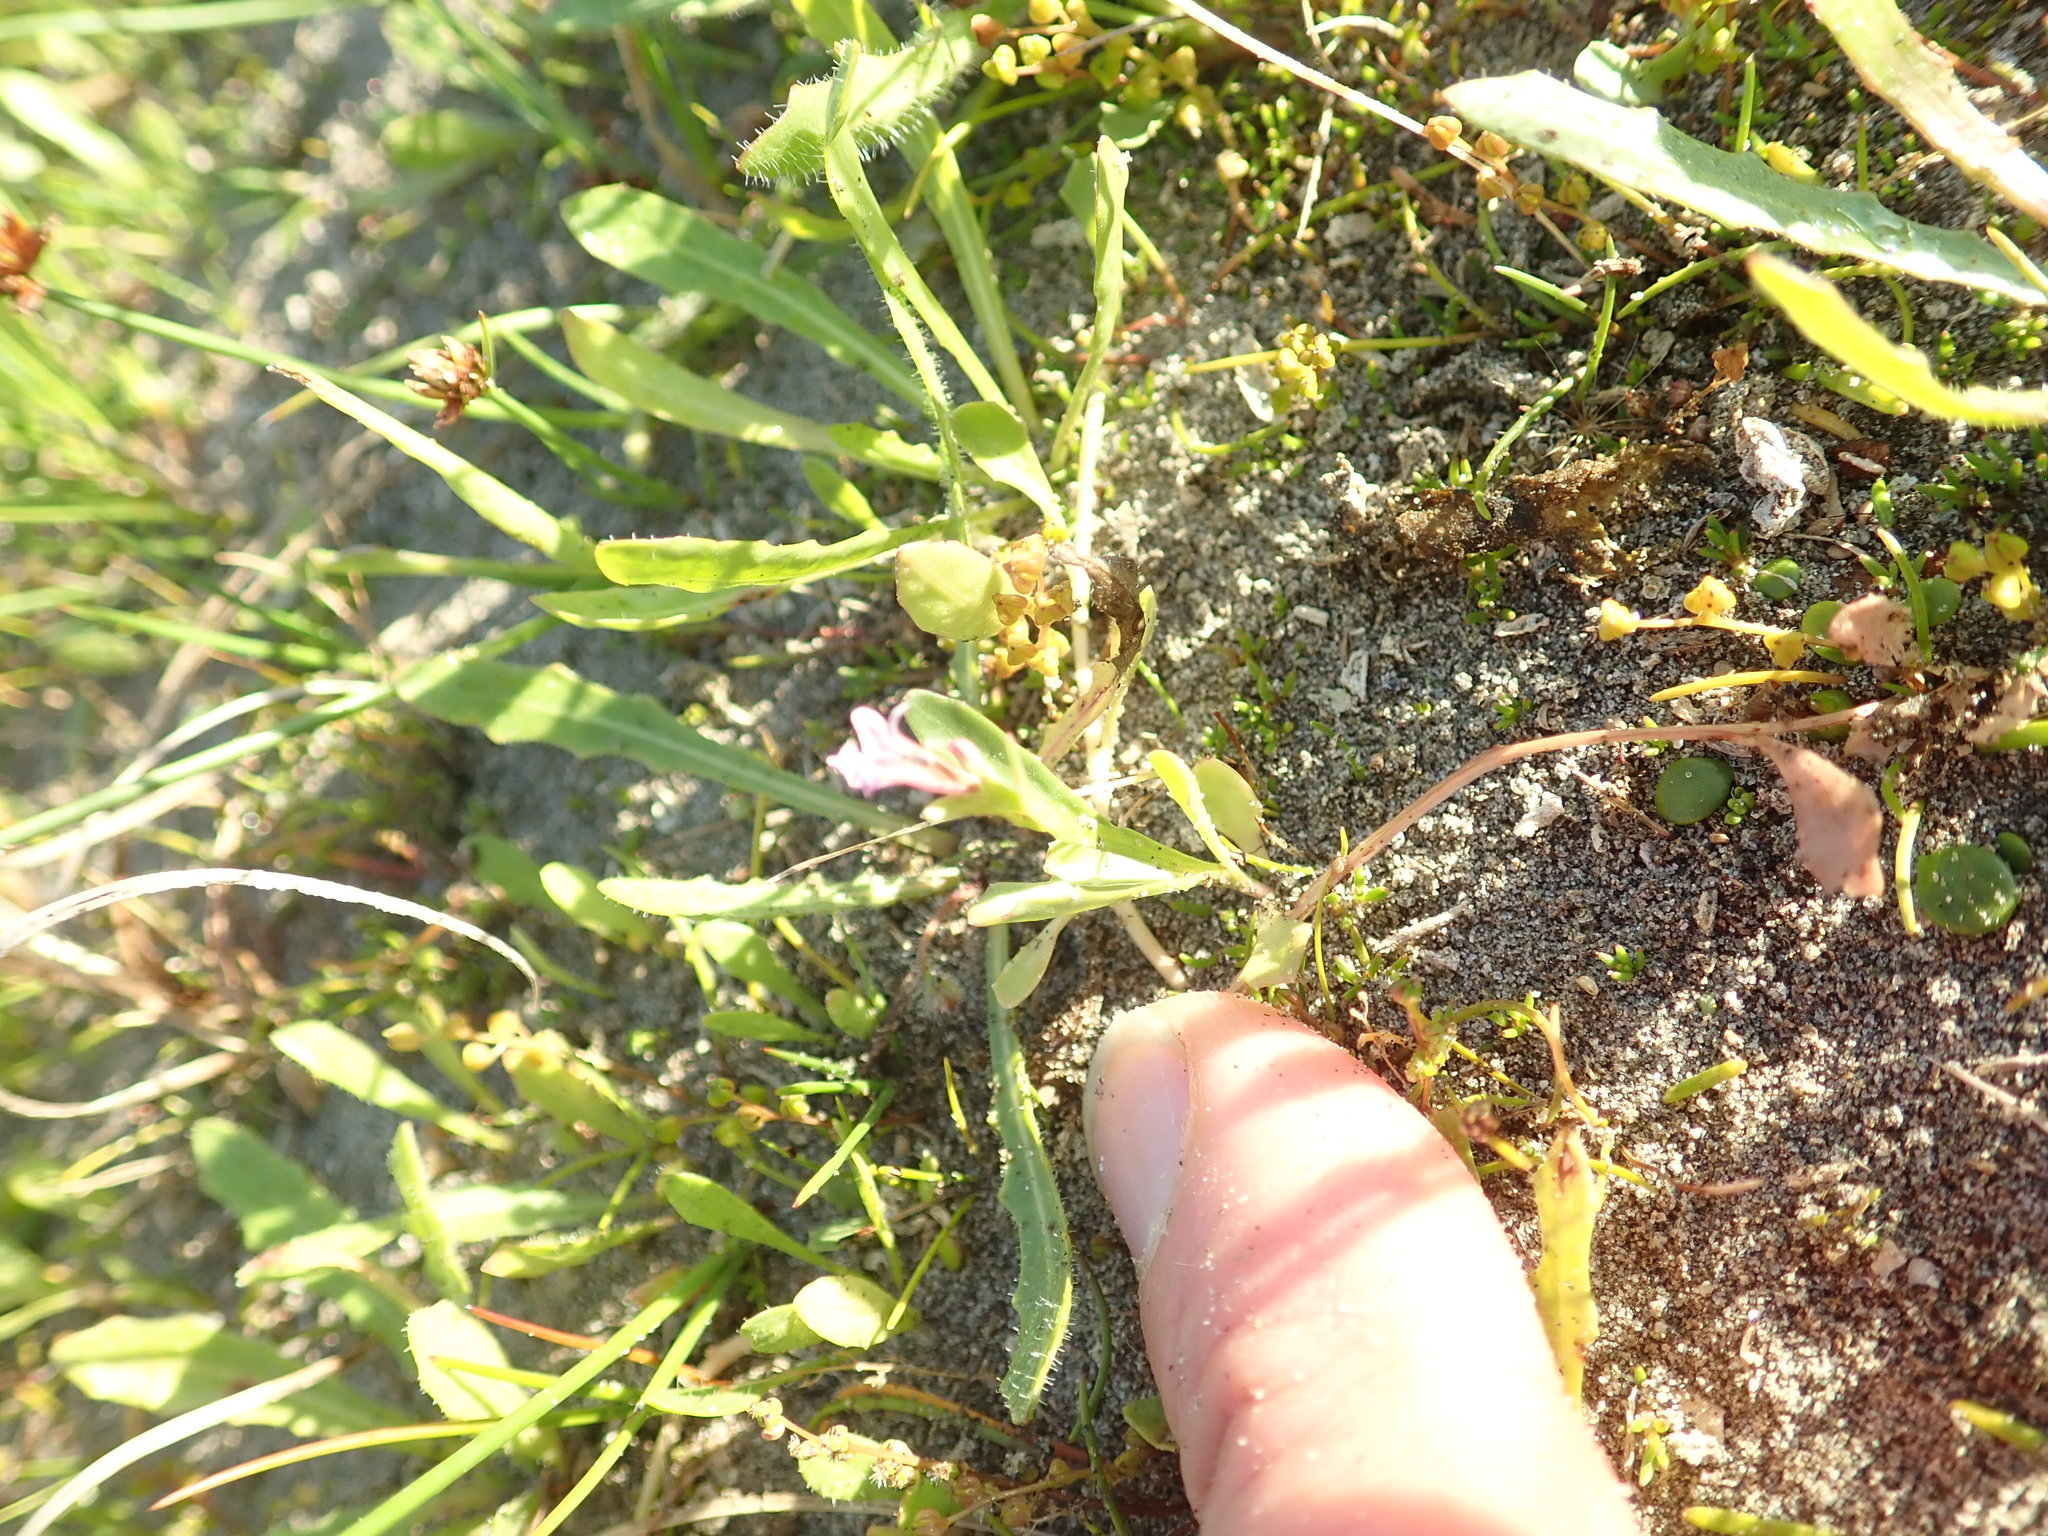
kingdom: Plantae
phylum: Tracheophyta
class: Magnoliopsida
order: Asterales
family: Campanulaceae
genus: Lobelia
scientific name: Lobelia anceps
